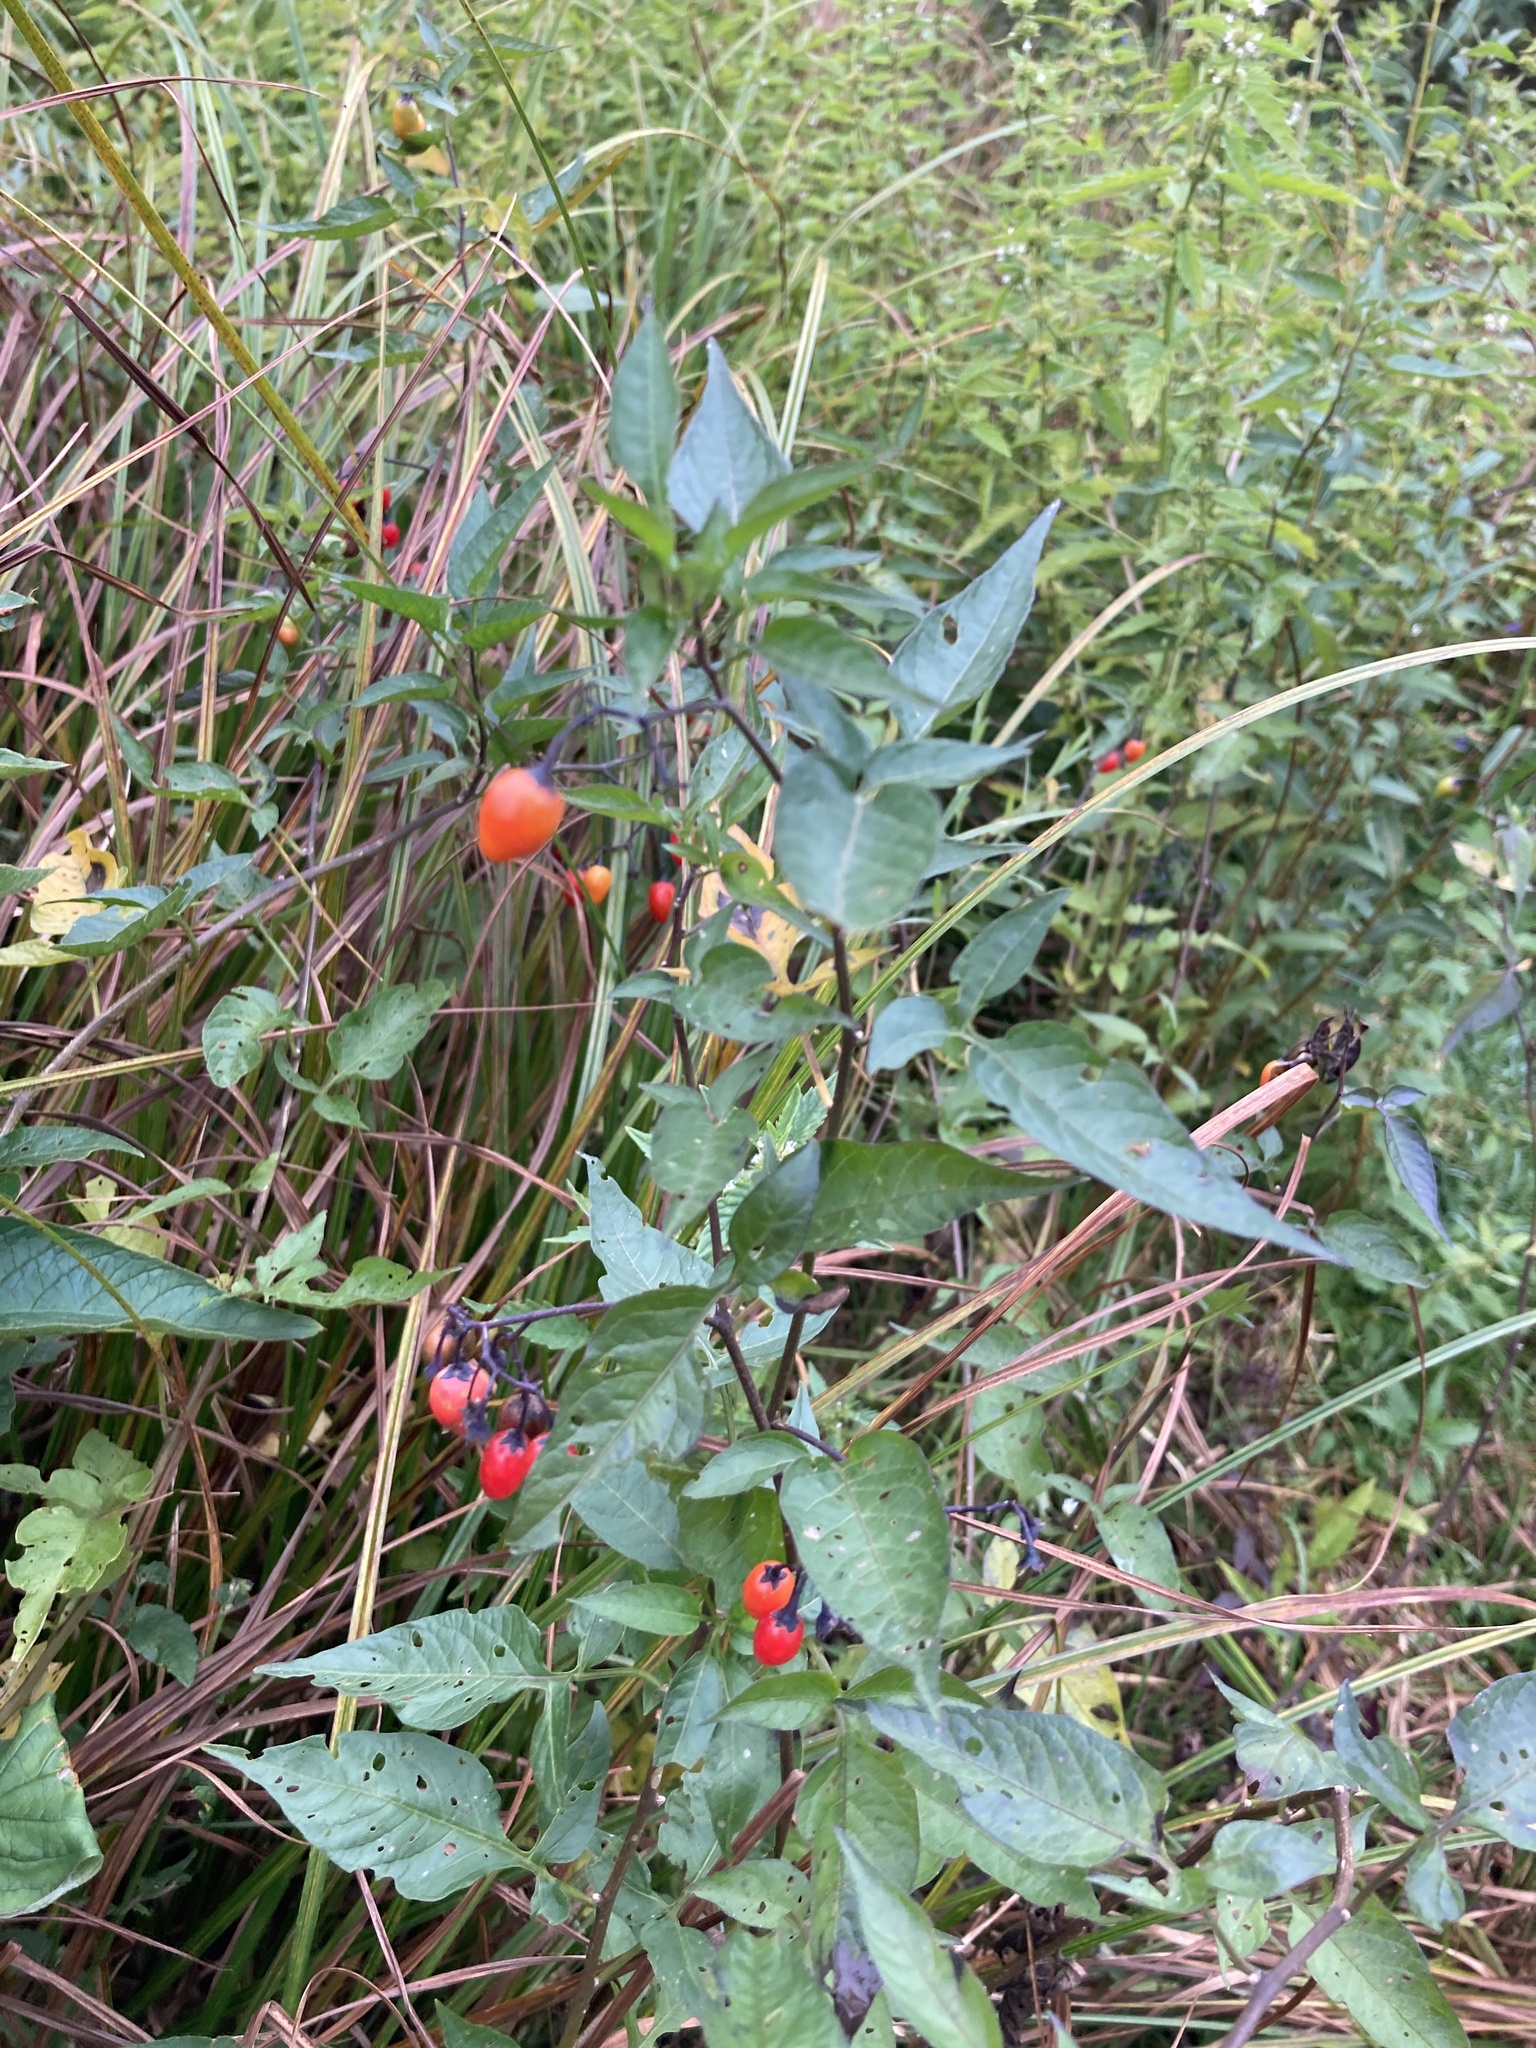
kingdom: Plantae
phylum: Tracheophyta
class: Magnoliopsida
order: Solanales
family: Solanaceae
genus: Solanum
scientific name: Solanum dulcamara
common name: Climbing nightshade
